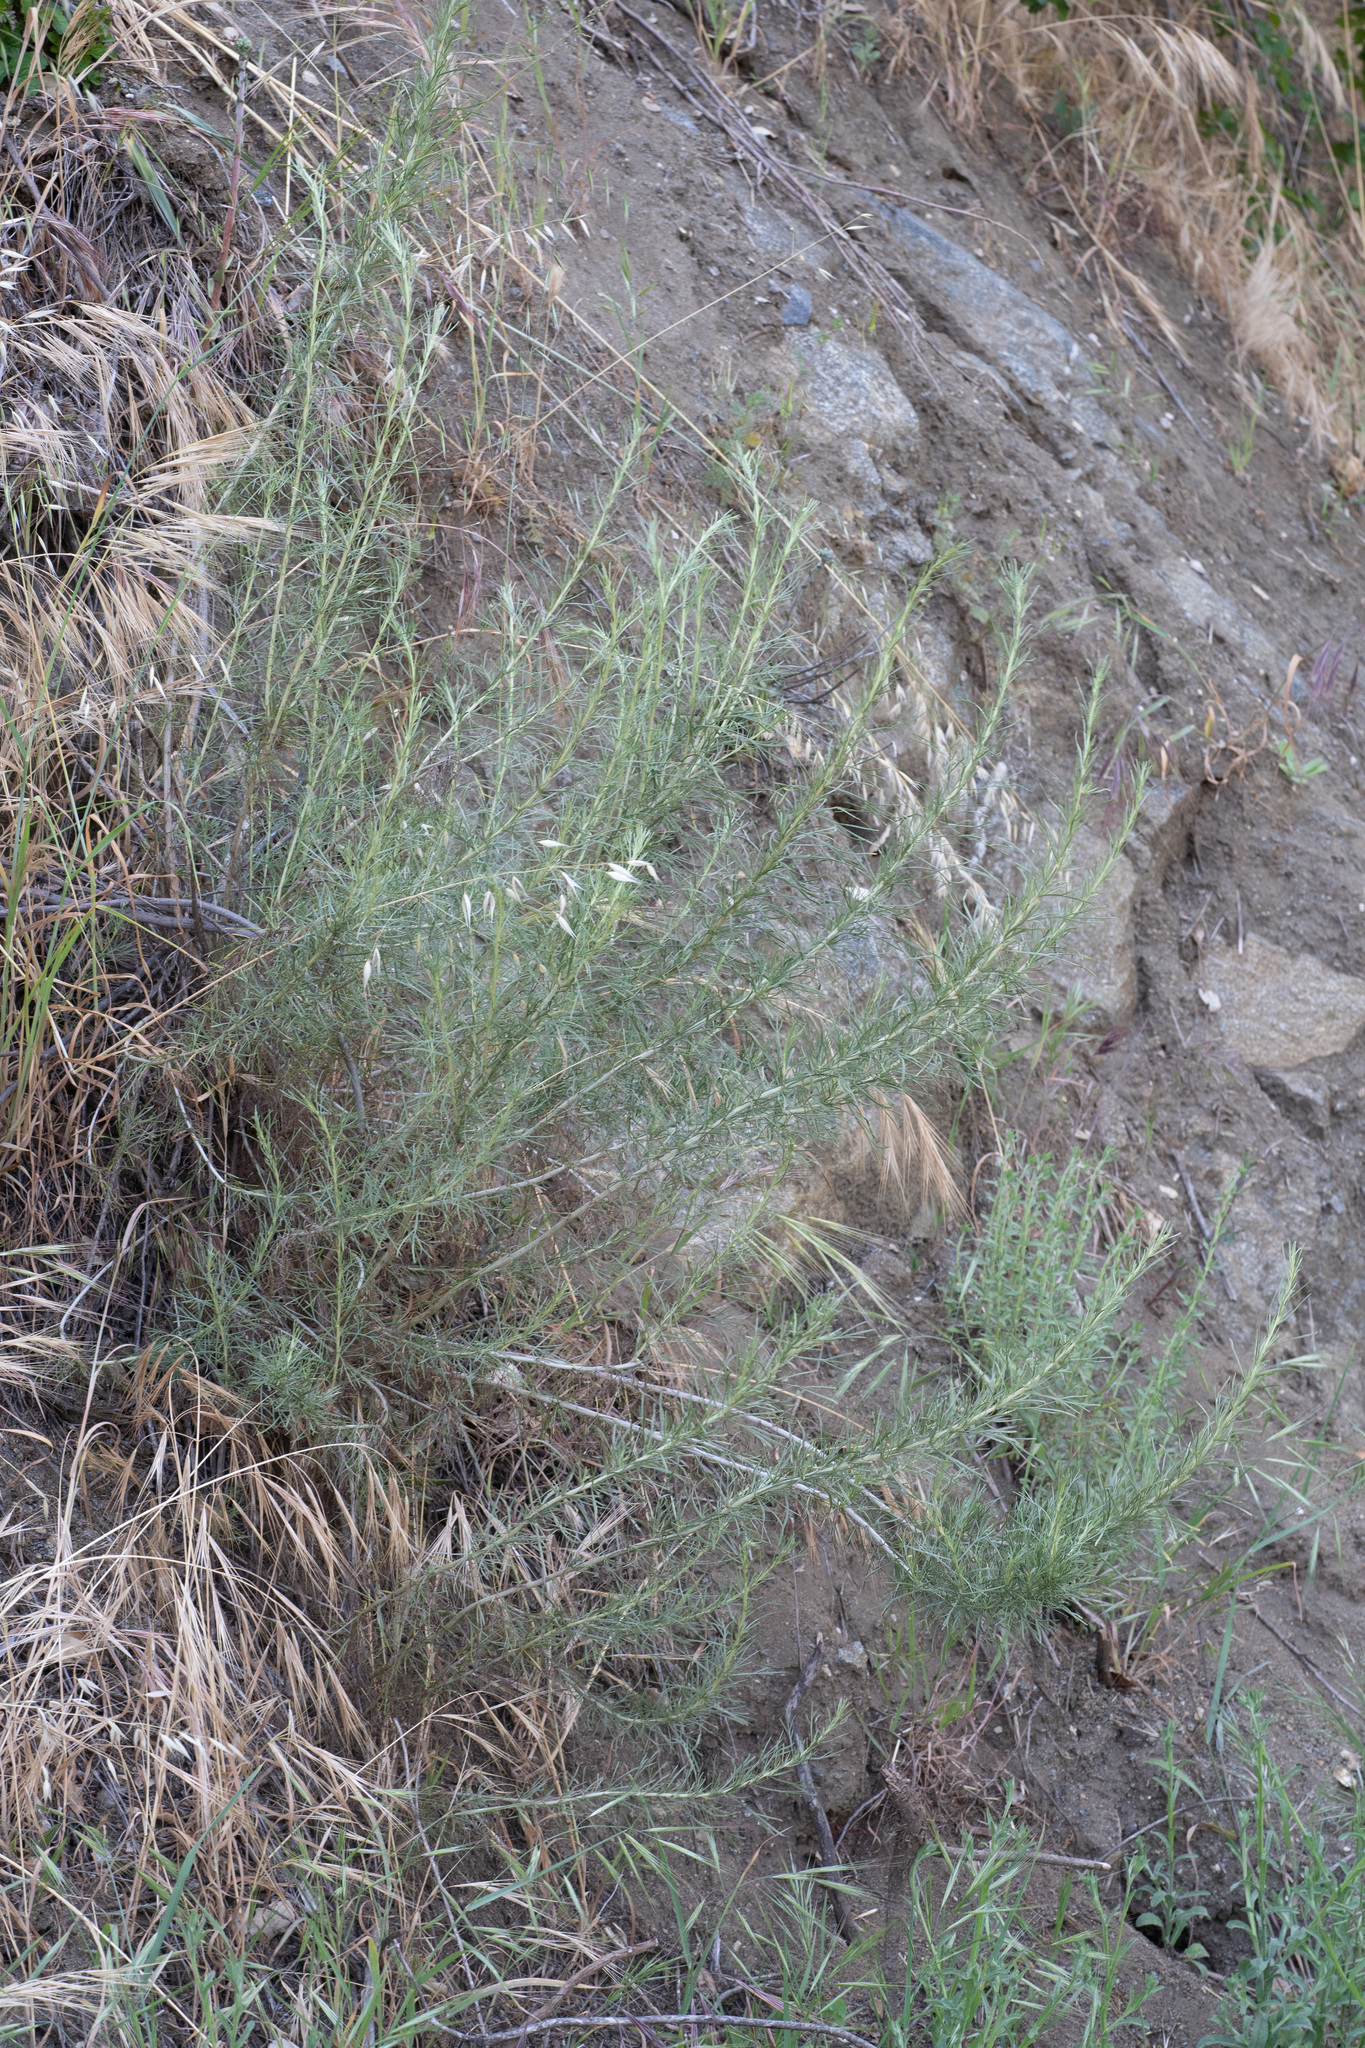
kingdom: Plantae
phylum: Tracheophyta
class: Magnoliopsida
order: Asterales
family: Asteraceae
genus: Artemisia
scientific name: Artemisia californica
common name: California sagebrush
